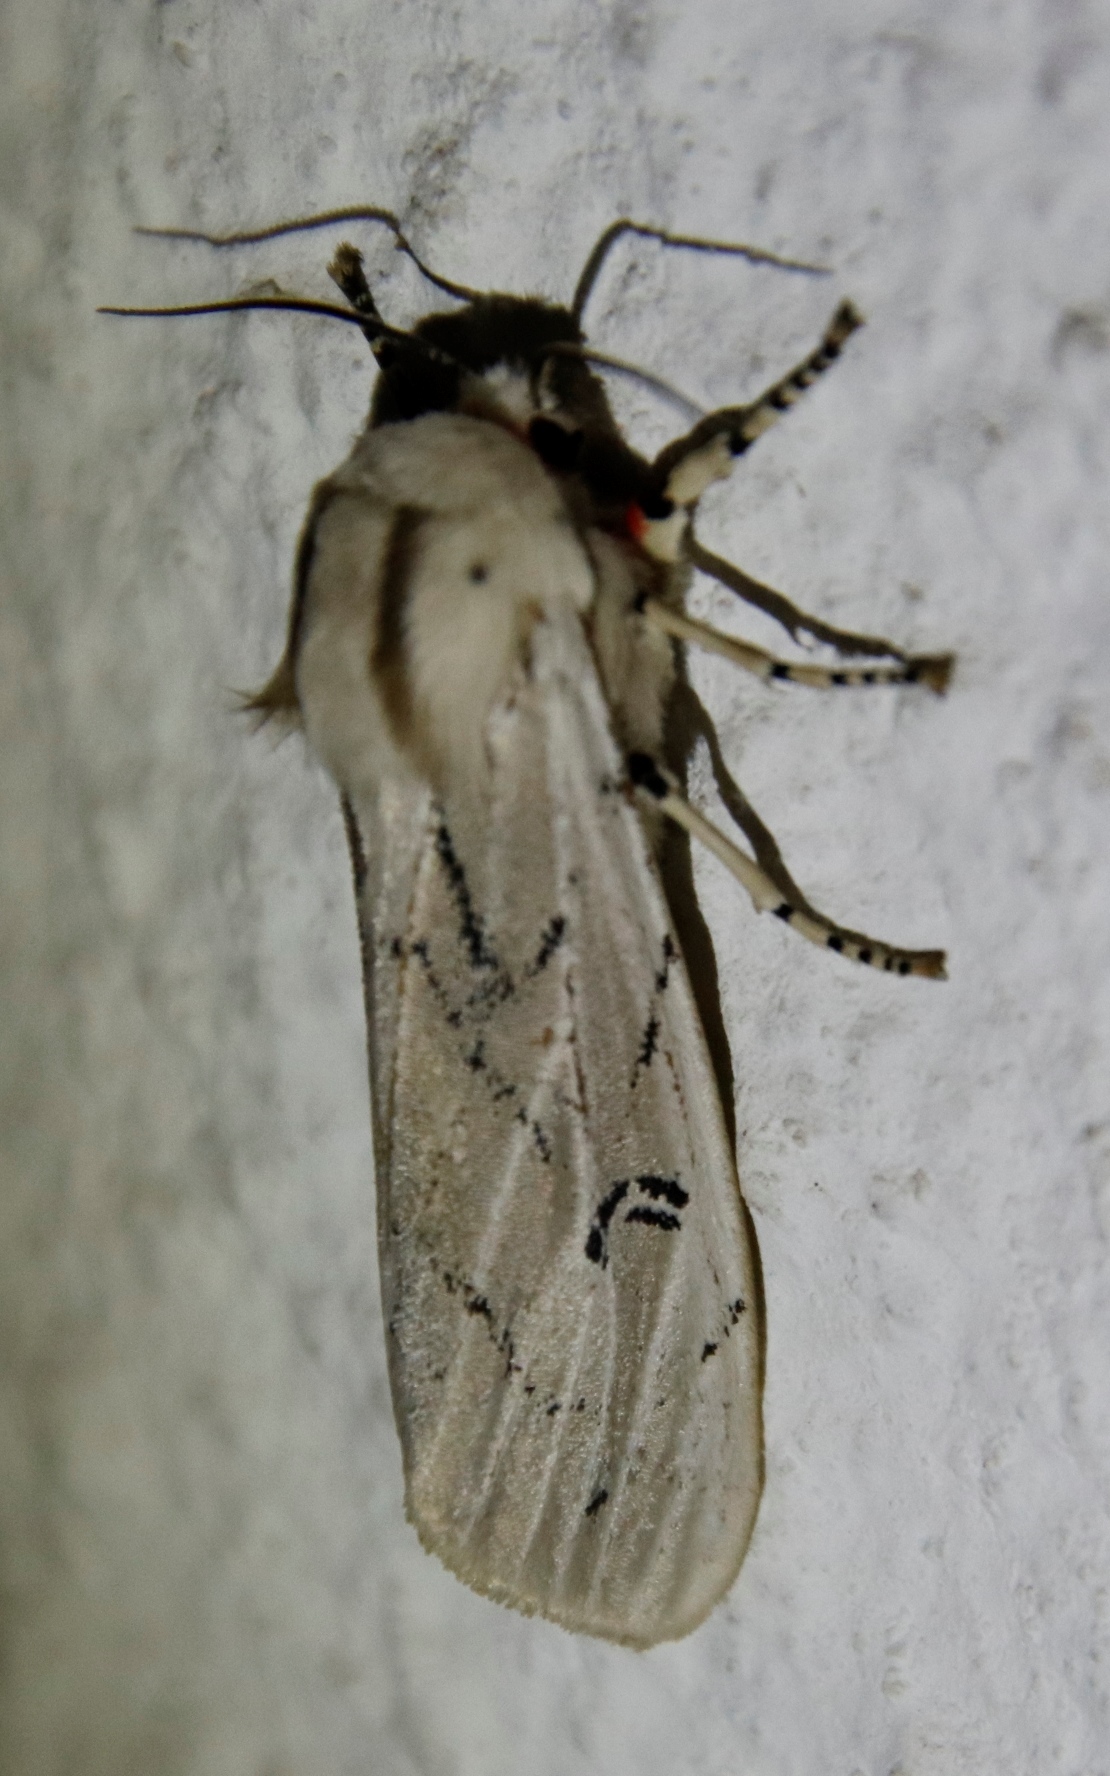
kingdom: Animalia
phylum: Arthropoda
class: Insecta
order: Lepidoptera
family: Erebidae
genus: Rhodogastria
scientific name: Rhodogastria amasis
